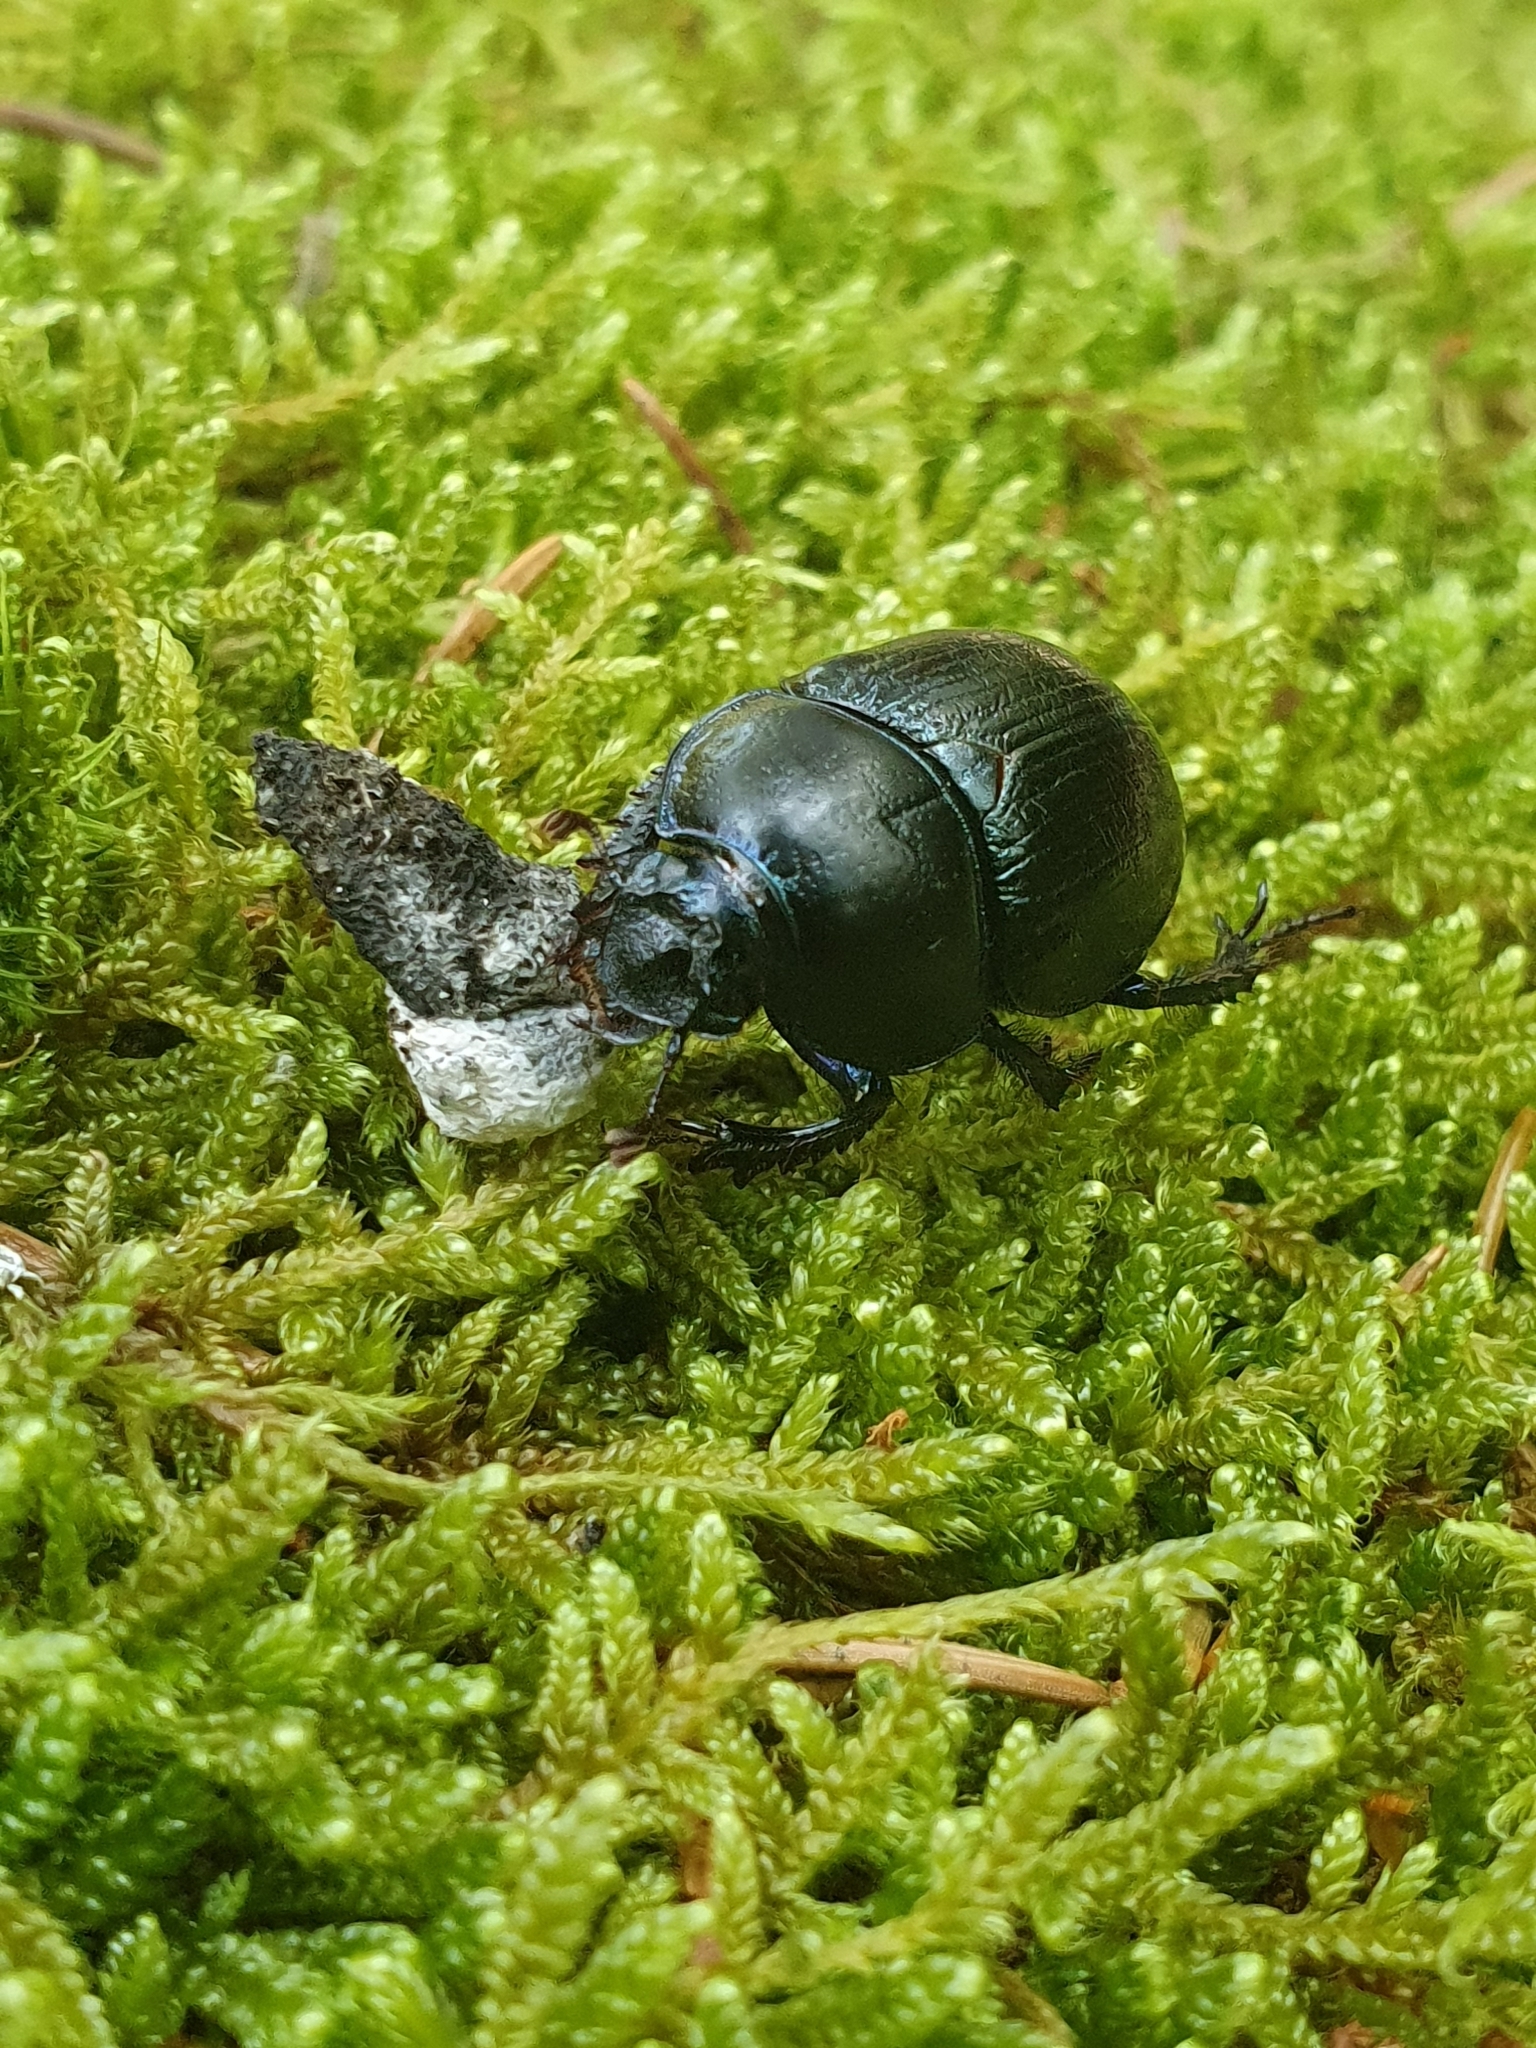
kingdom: Animalia
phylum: Arthropoda
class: Insecta
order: Coleoptera
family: Geotrupidae
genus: Anoplotrupes
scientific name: Anoplotrupes stercorosus
